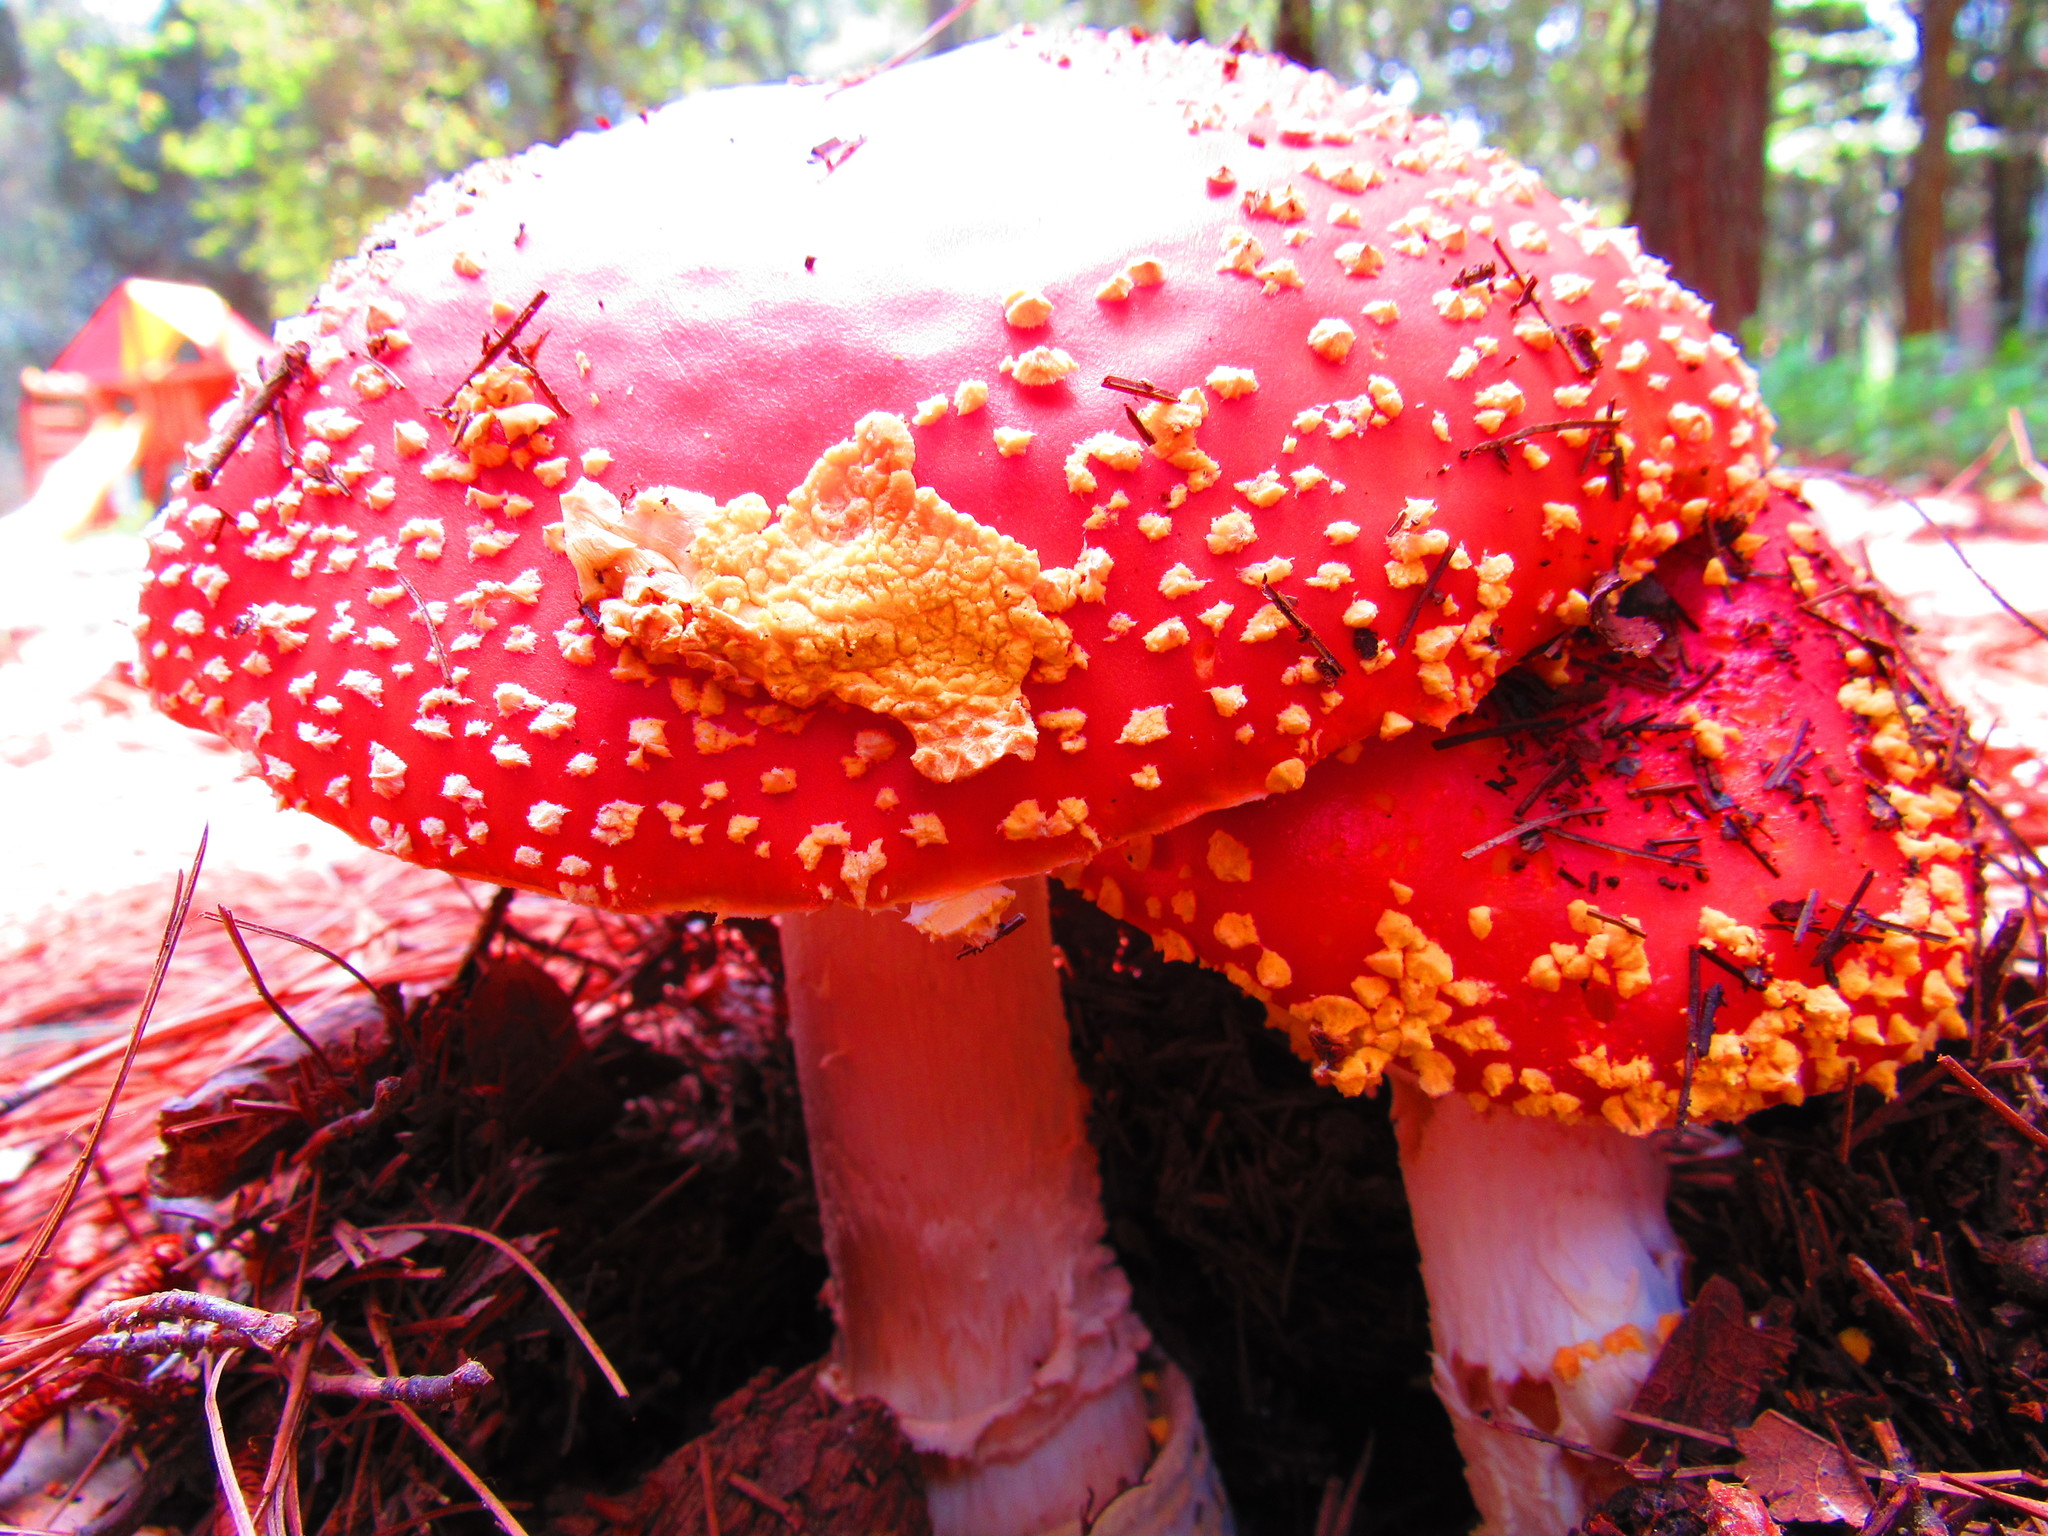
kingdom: Fungi
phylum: Basidiomycota
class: Agaricomycetes
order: Agaricales
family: Amanitaceae
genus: Amanita
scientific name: Amanita muscaria
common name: Fly agaric
